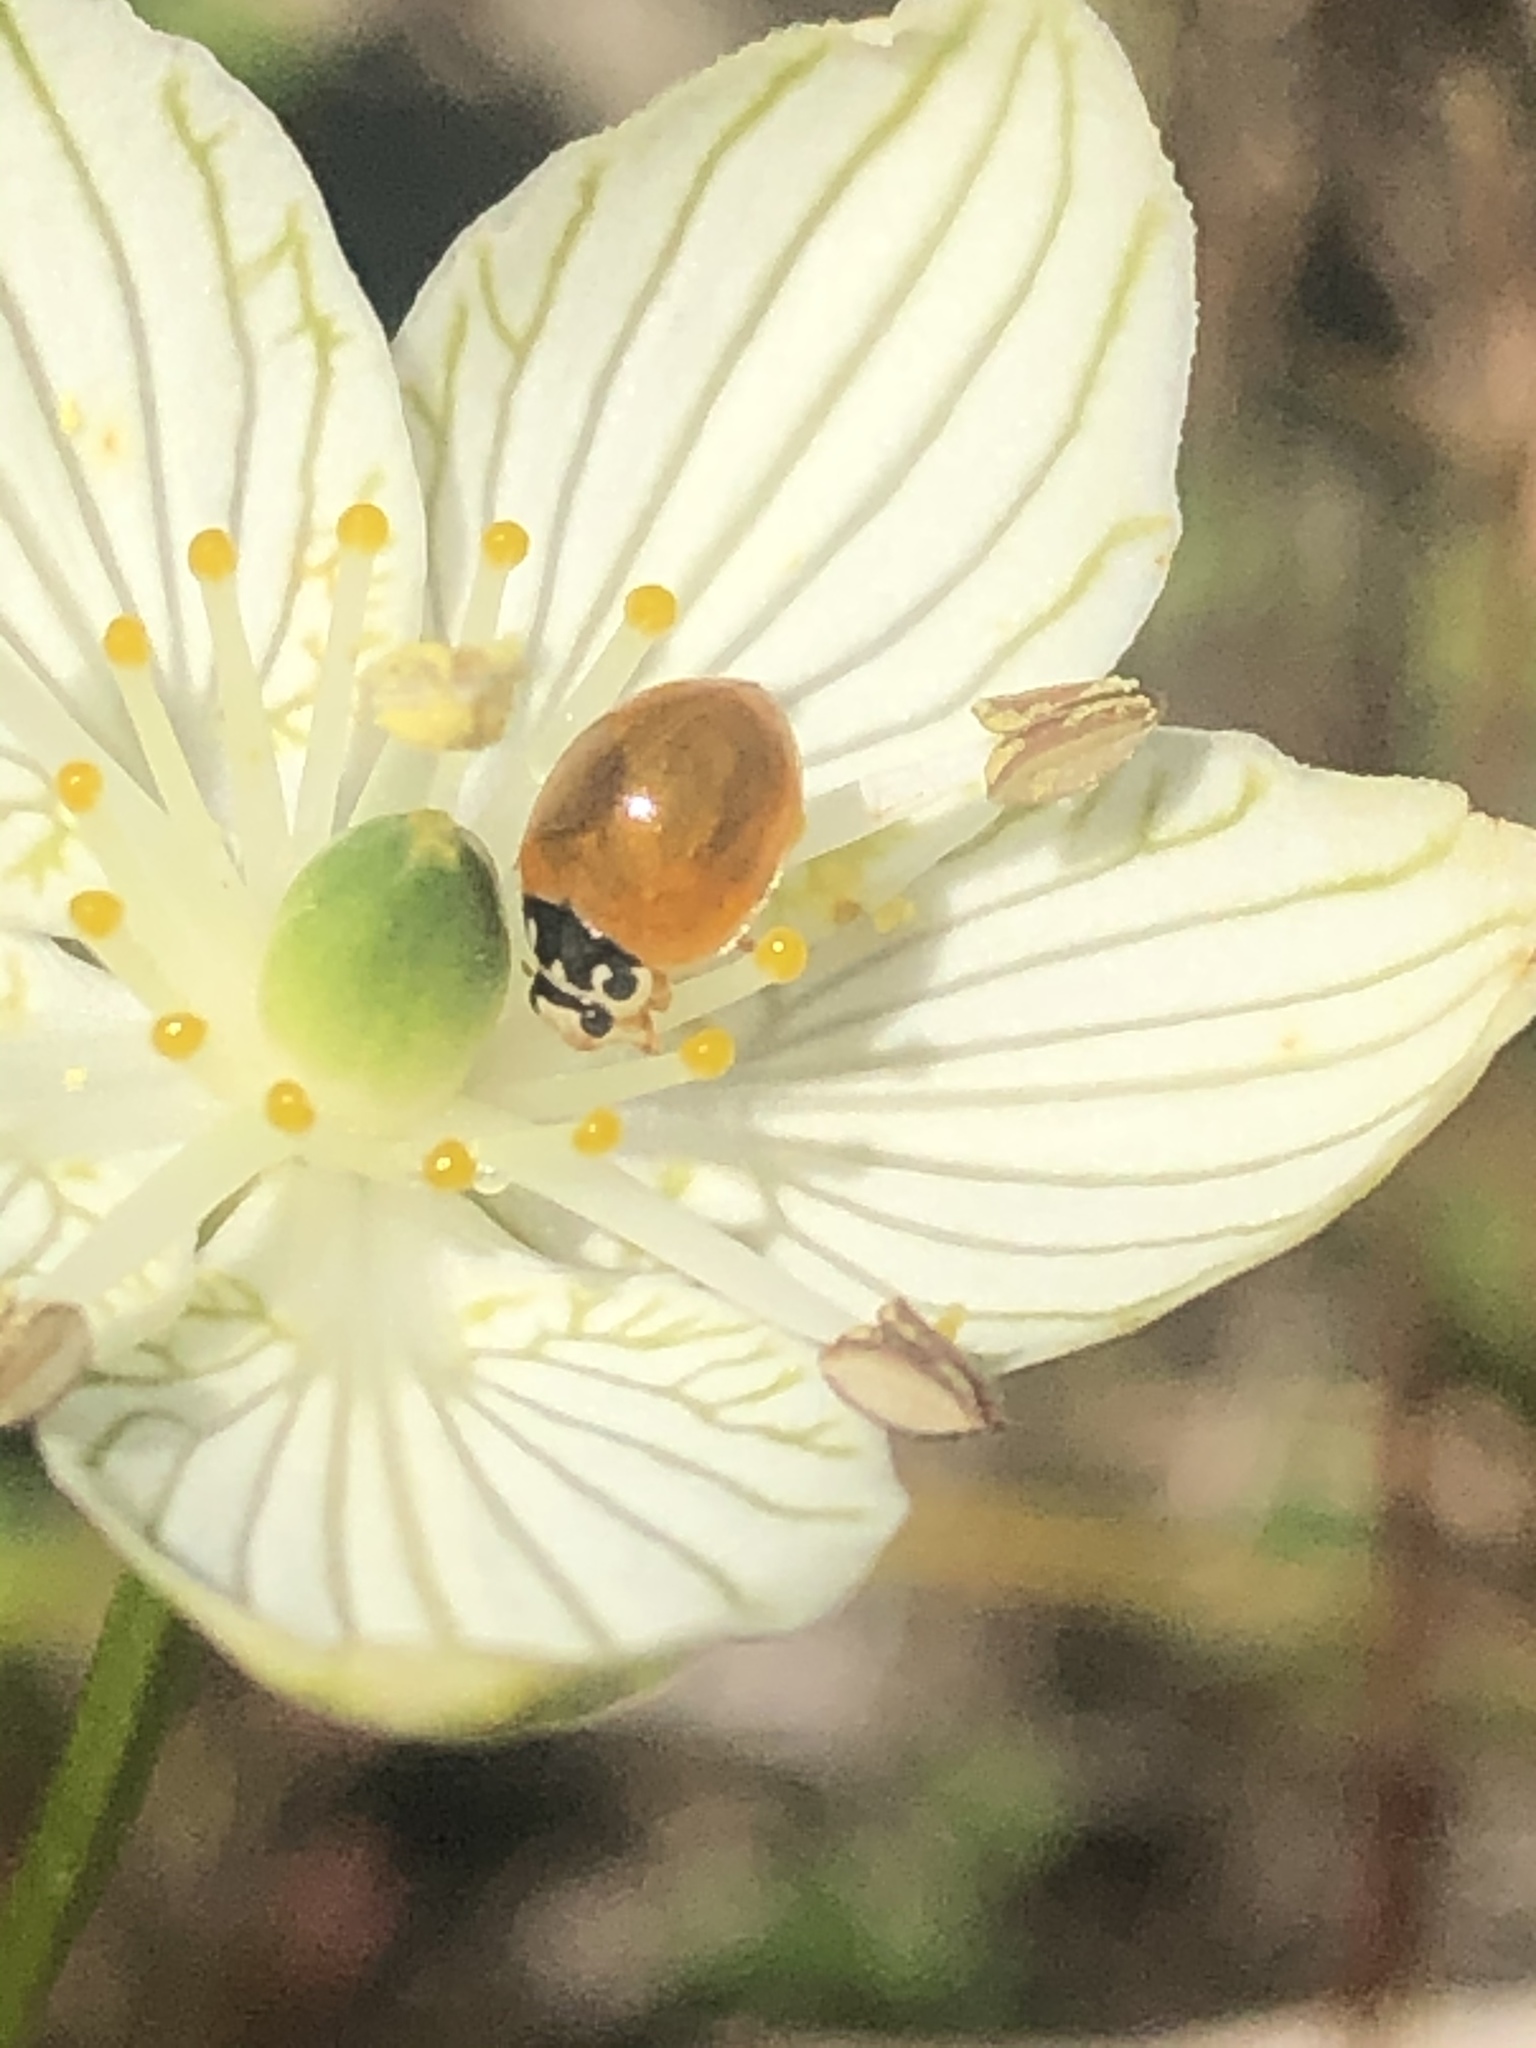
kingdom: Animalia
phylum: Arthropoda
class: Insecta
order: Coleoptera
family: Coccinellidae
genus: Cycloneda
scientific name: Cycloneda munda
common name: Polished lady beetle
